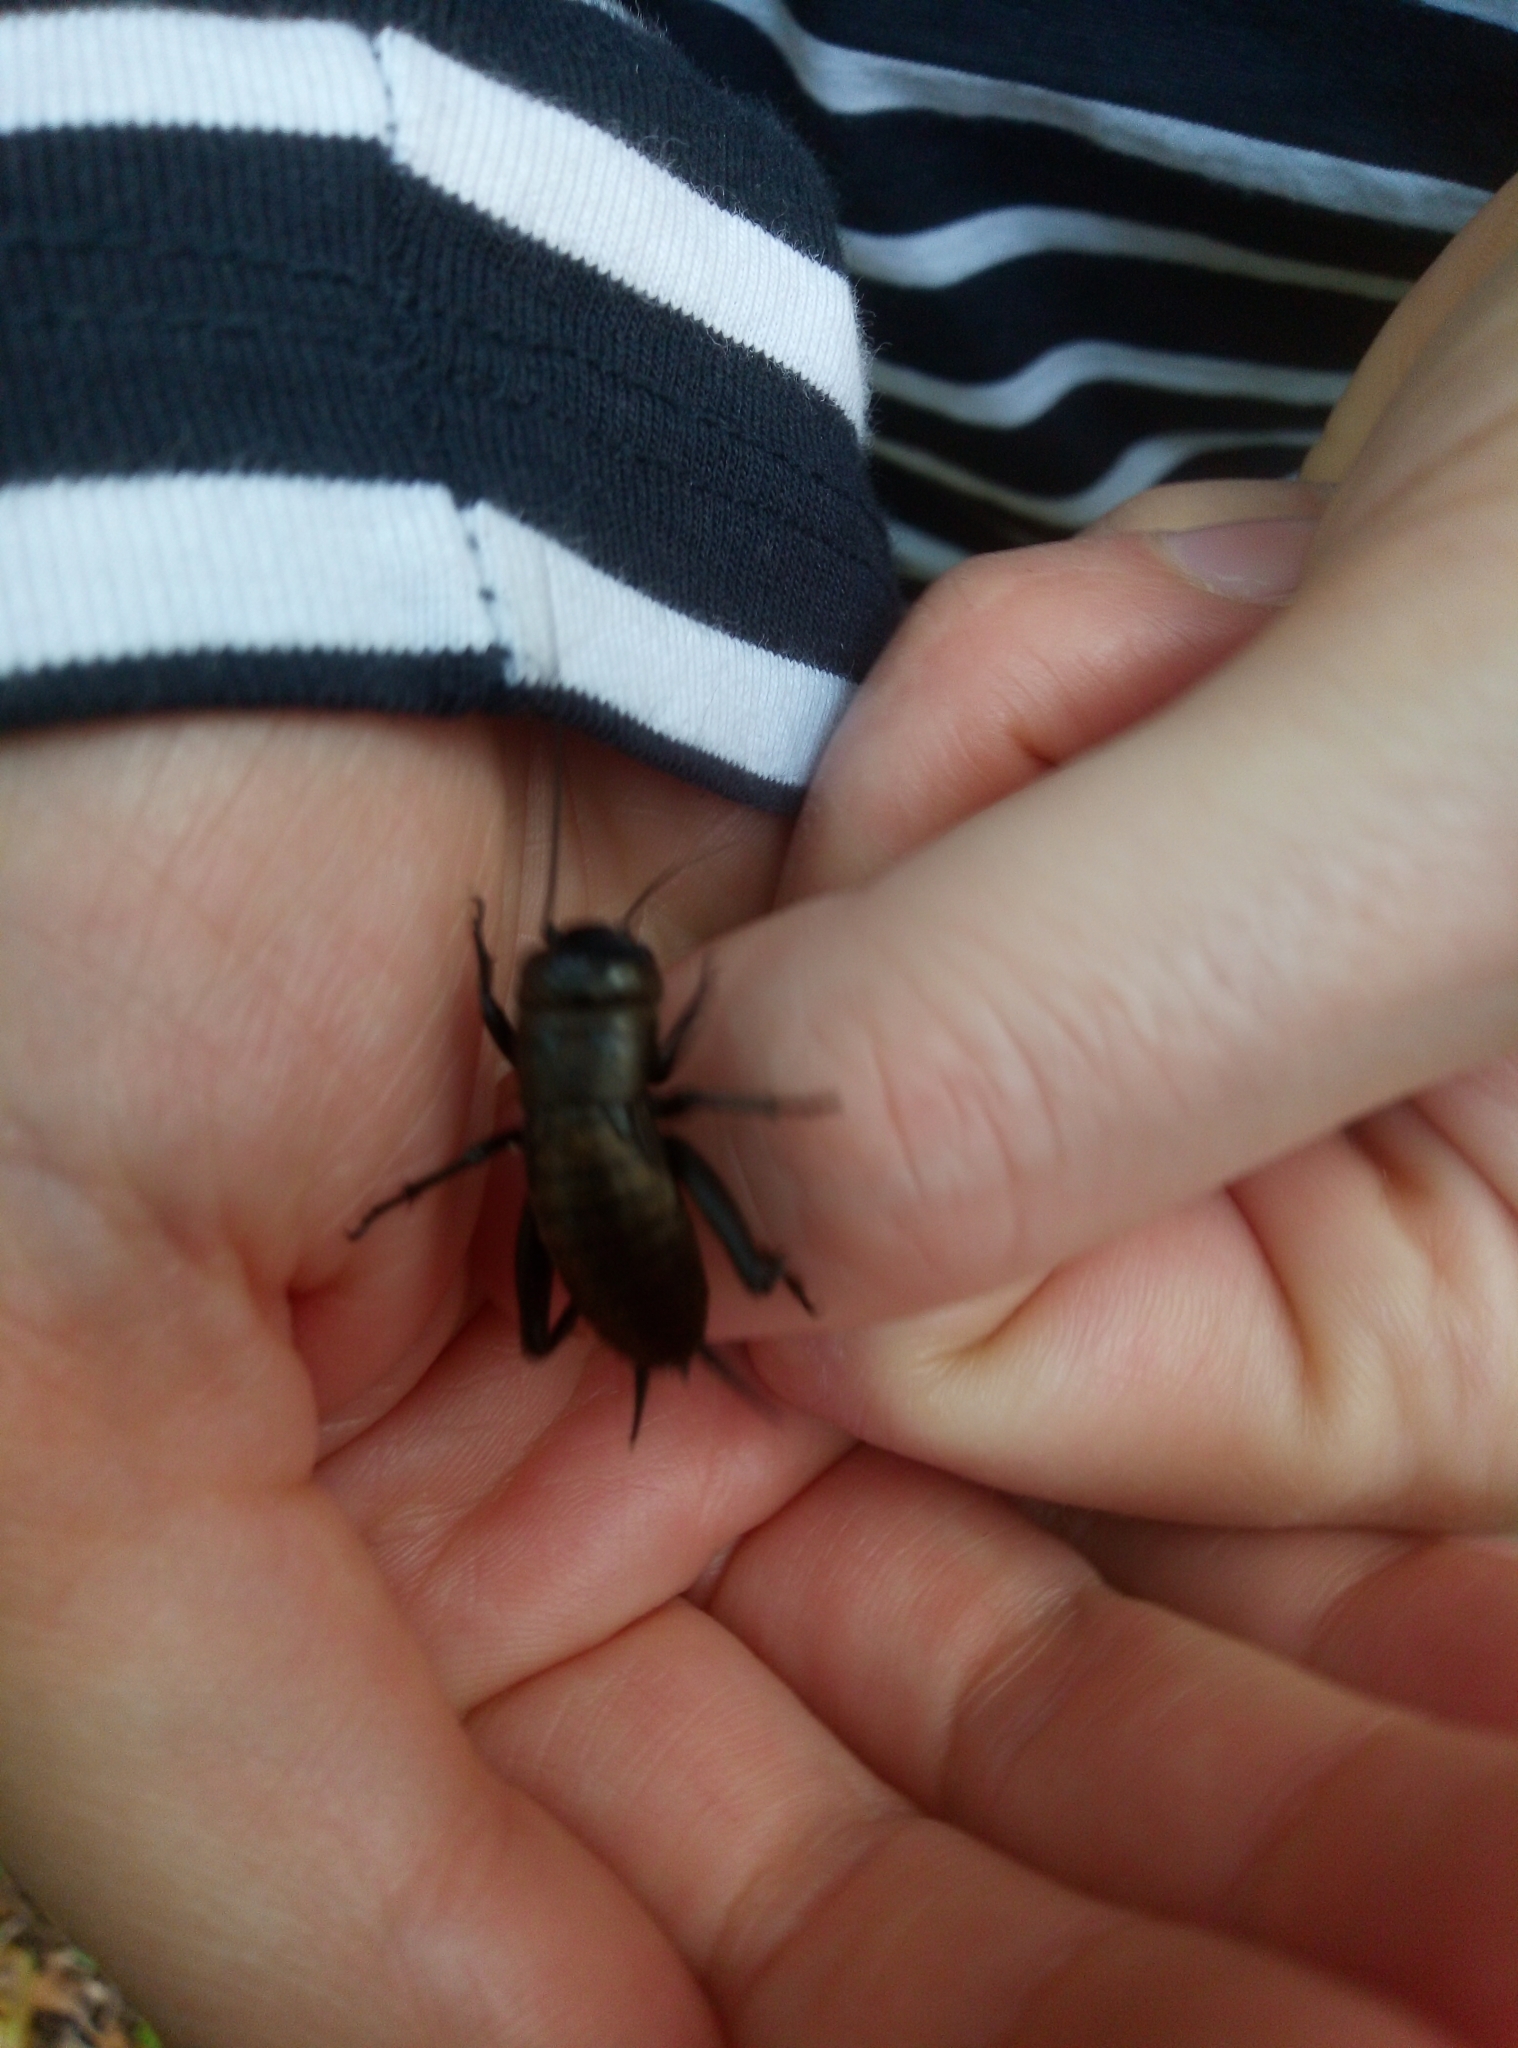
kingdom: Animalia
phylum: Arthropoda
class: Insecta
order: Orthoptera
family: Gryllidae
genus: Gryllus
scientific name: Gryllus campestris
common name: Field cricket
